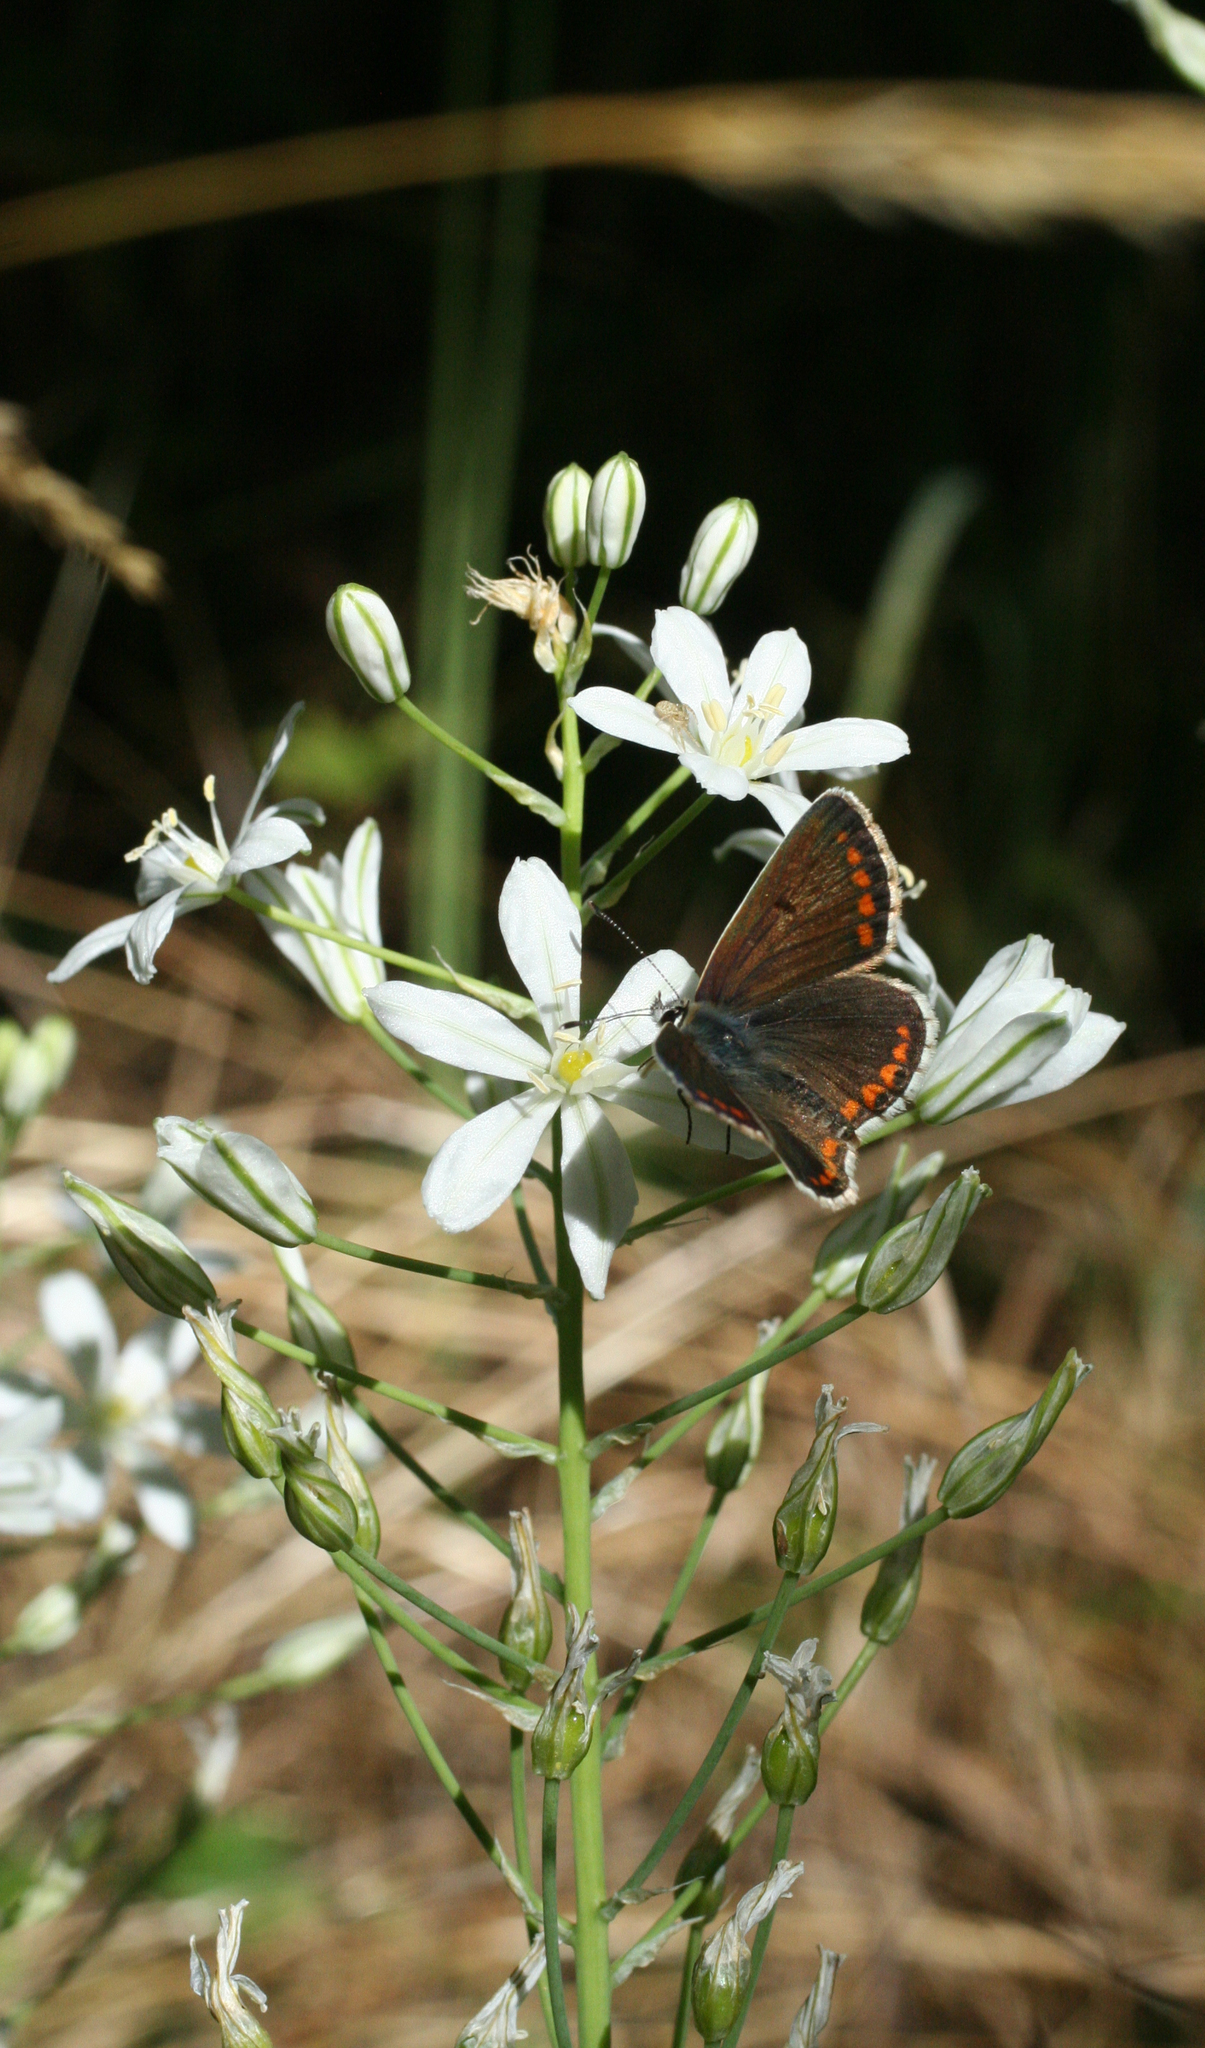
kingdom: Plantae
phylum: Tracheophyta
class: Liliopsida
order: Asparagales
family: Asparagaceae
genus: Ornithogalum
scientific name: Ornithogalum ponticum
